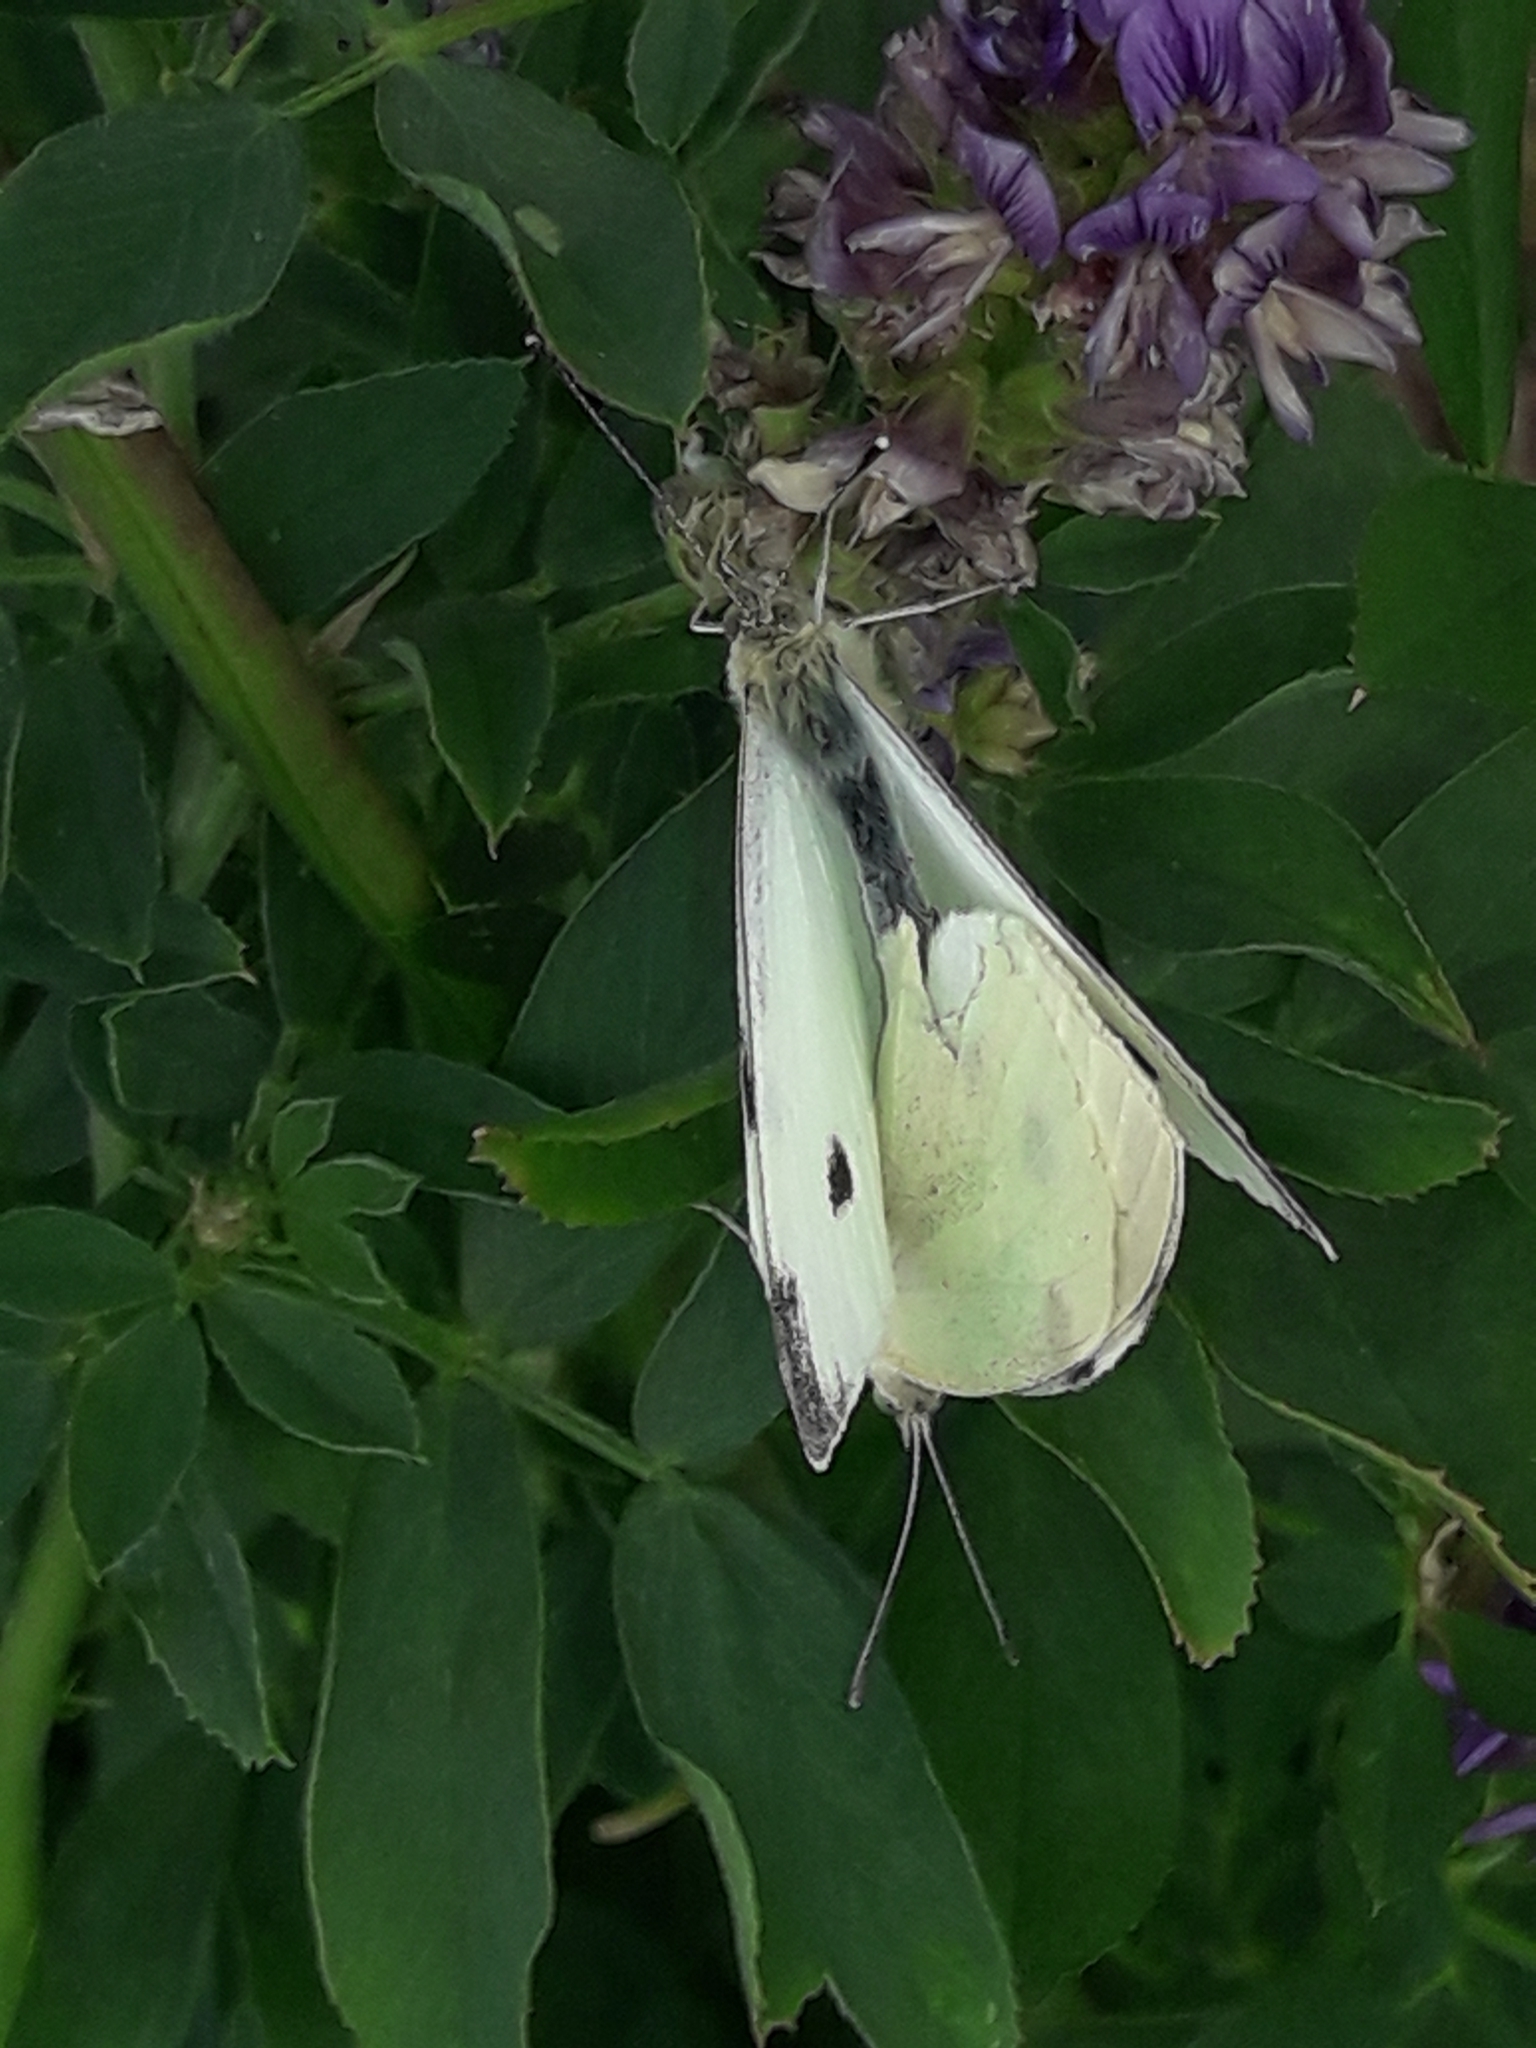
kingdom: Animalia
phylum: Arthropoda
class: Insecta
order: Lepidoptera
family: Pieridae
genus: Pieris
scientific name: Pieris rapae
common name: Small white
